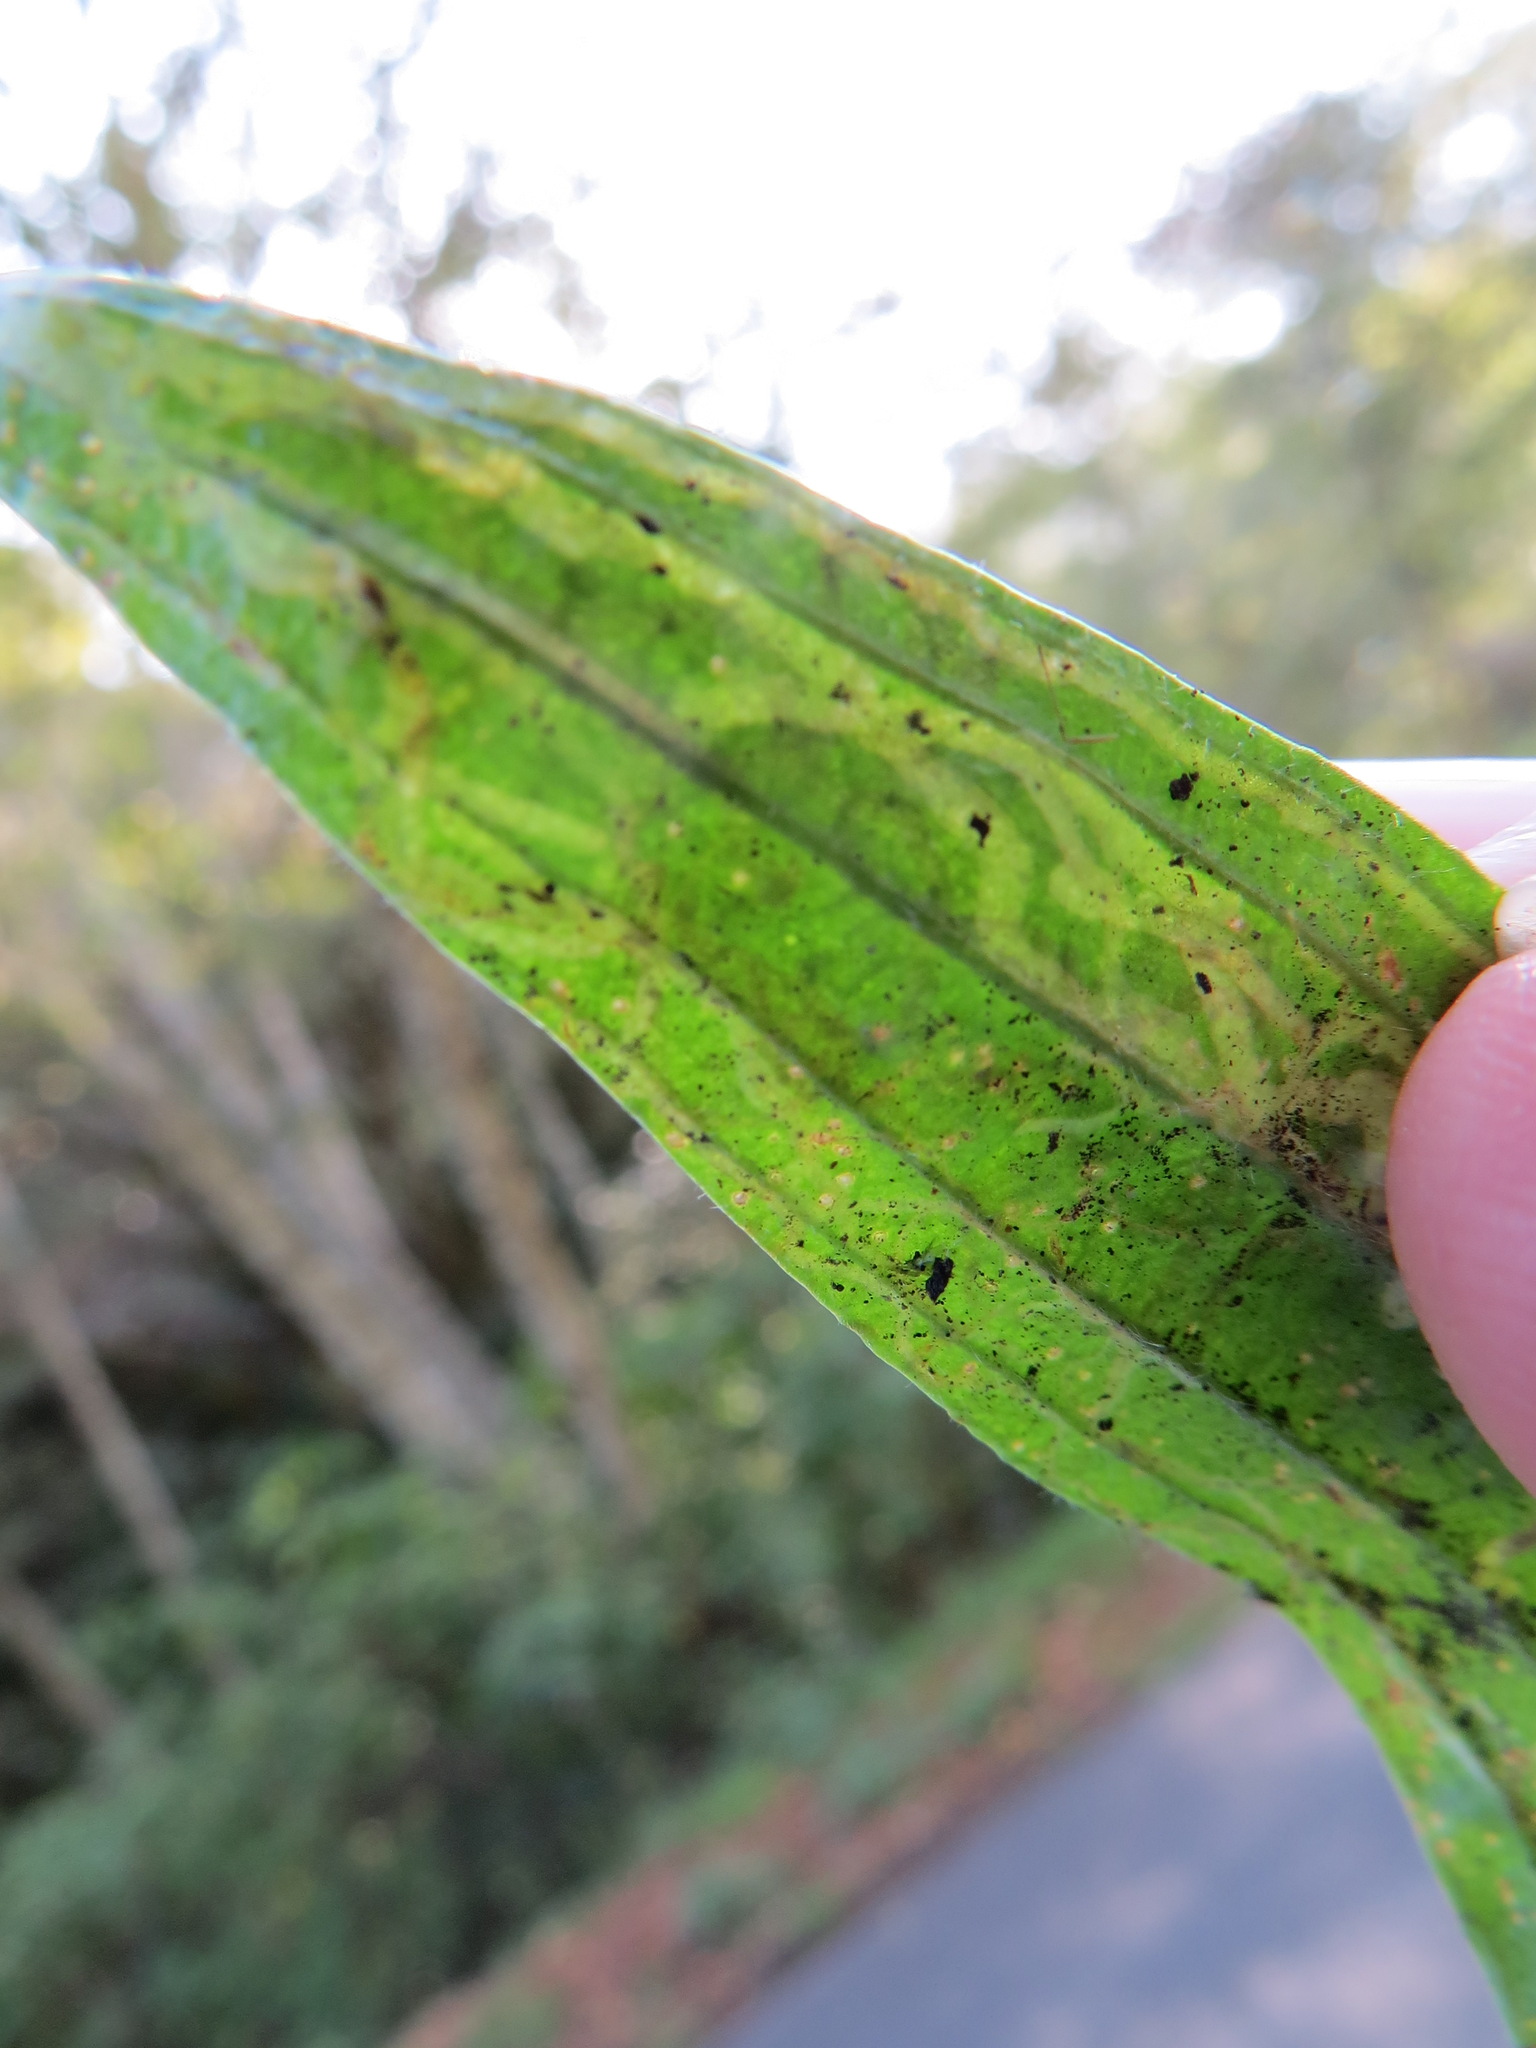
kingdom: Animalia
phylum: Arthropoda
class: Insecta
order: Diptera
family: Agromyzidae
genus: Phytomyza
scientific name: Phytomyza plantaginis
